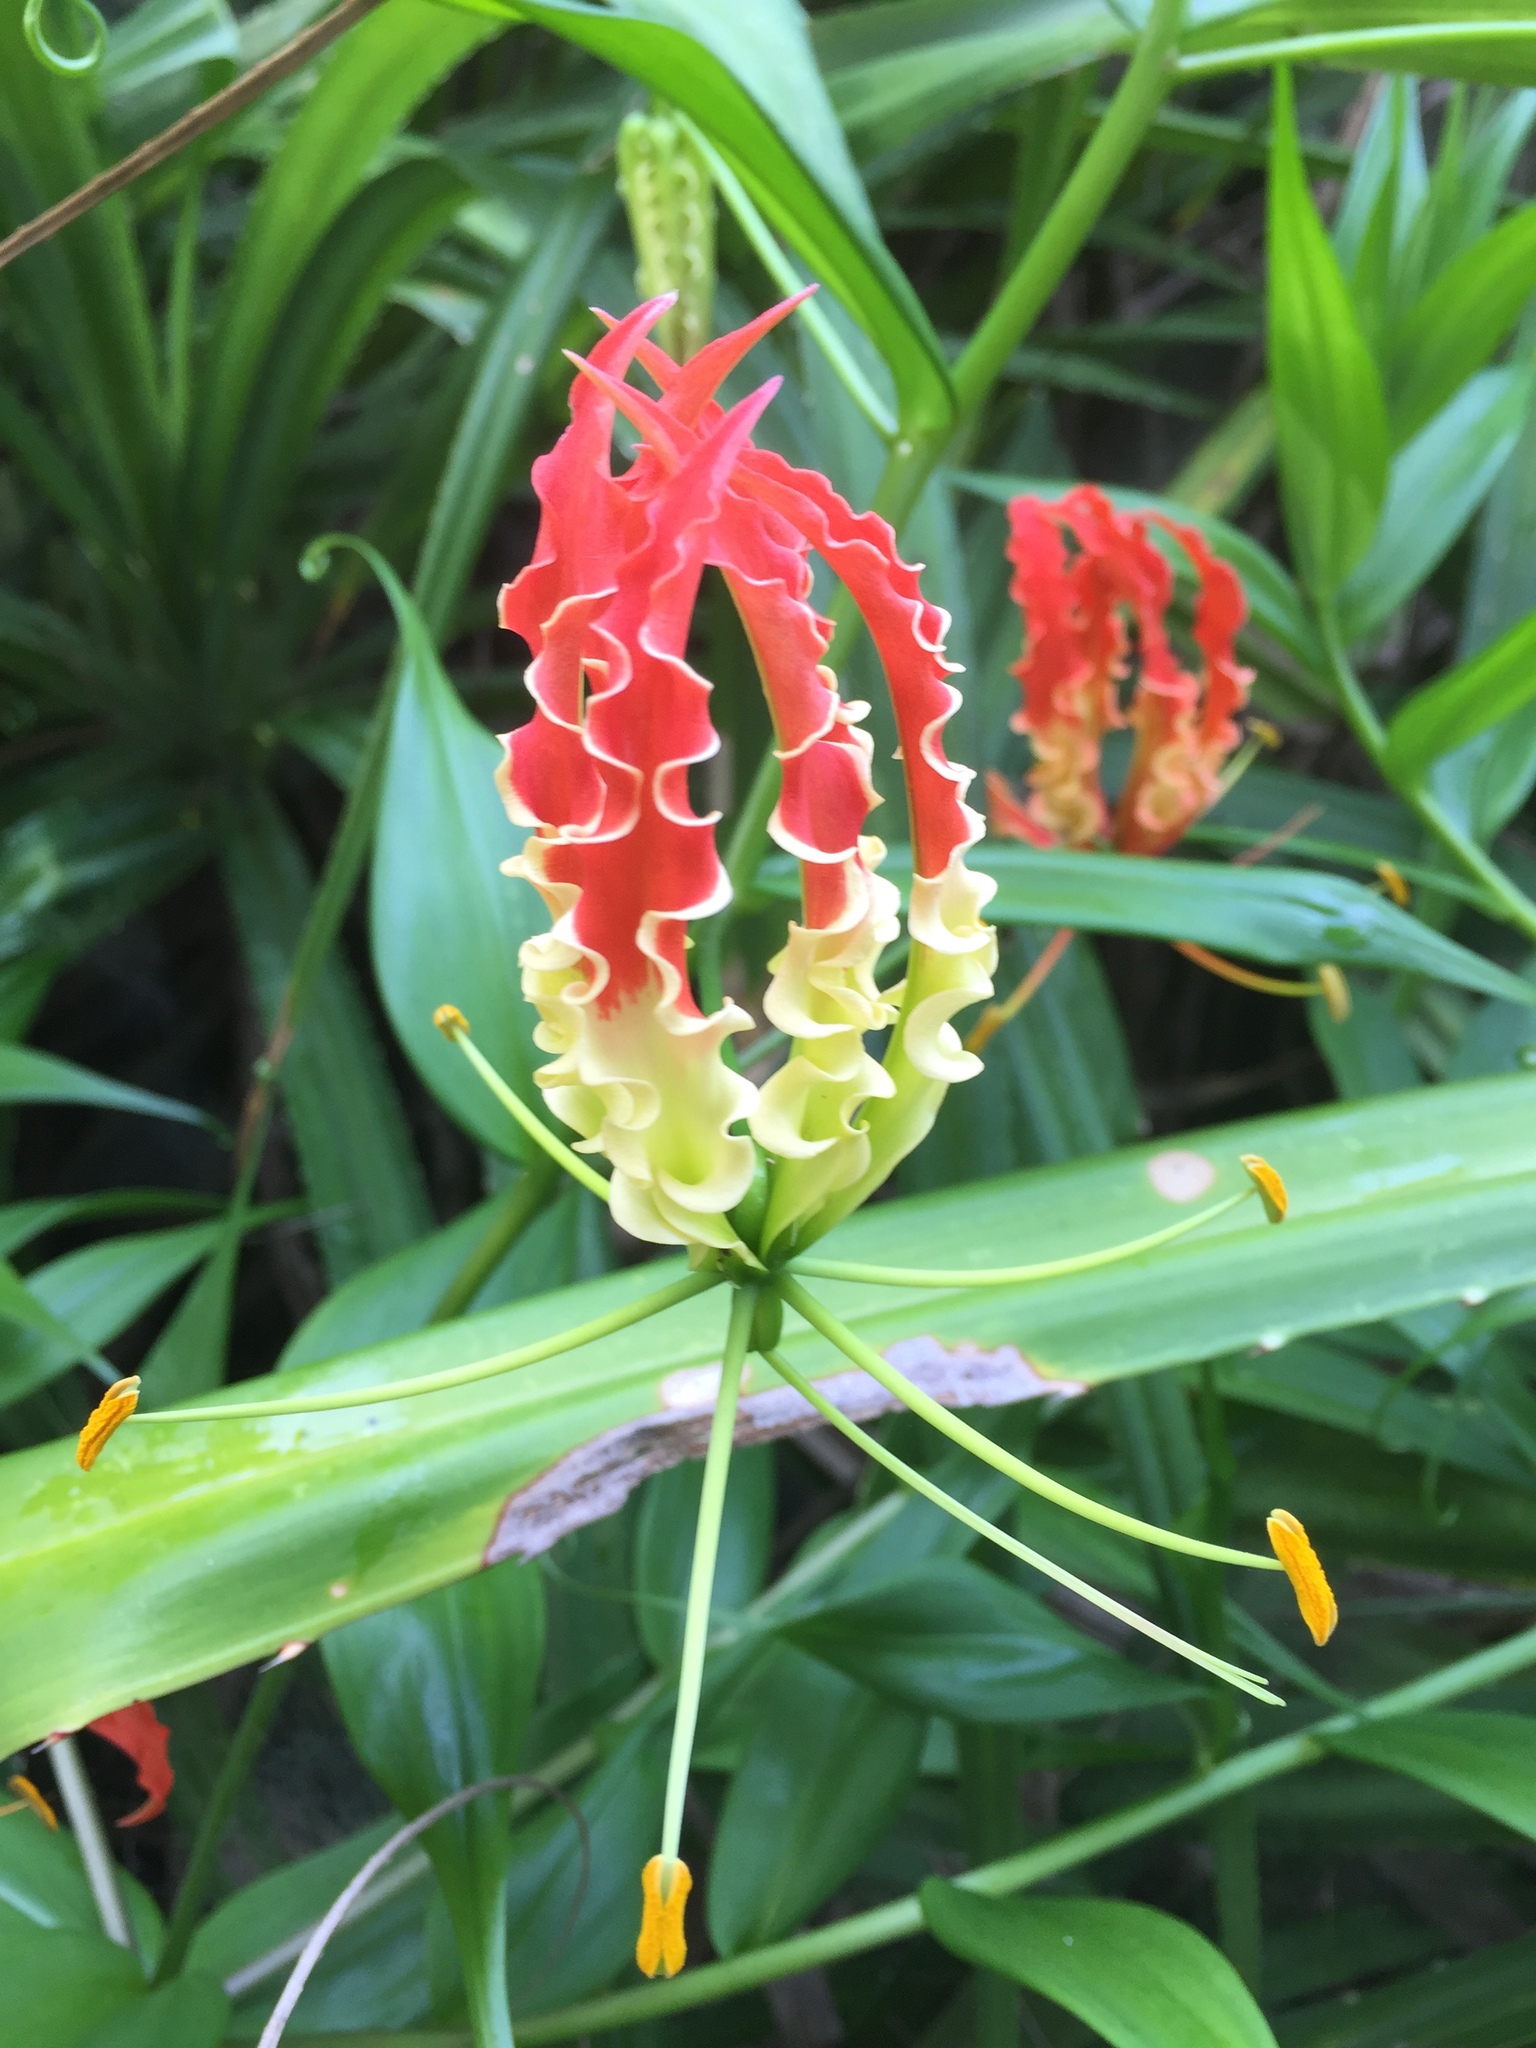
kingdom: Plantae
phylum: Tracheophyta
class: Liliopsida
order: Liliales
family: Colchicaceae
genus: Gloriosa
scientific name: Gloriosa superba
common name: Flame lily
